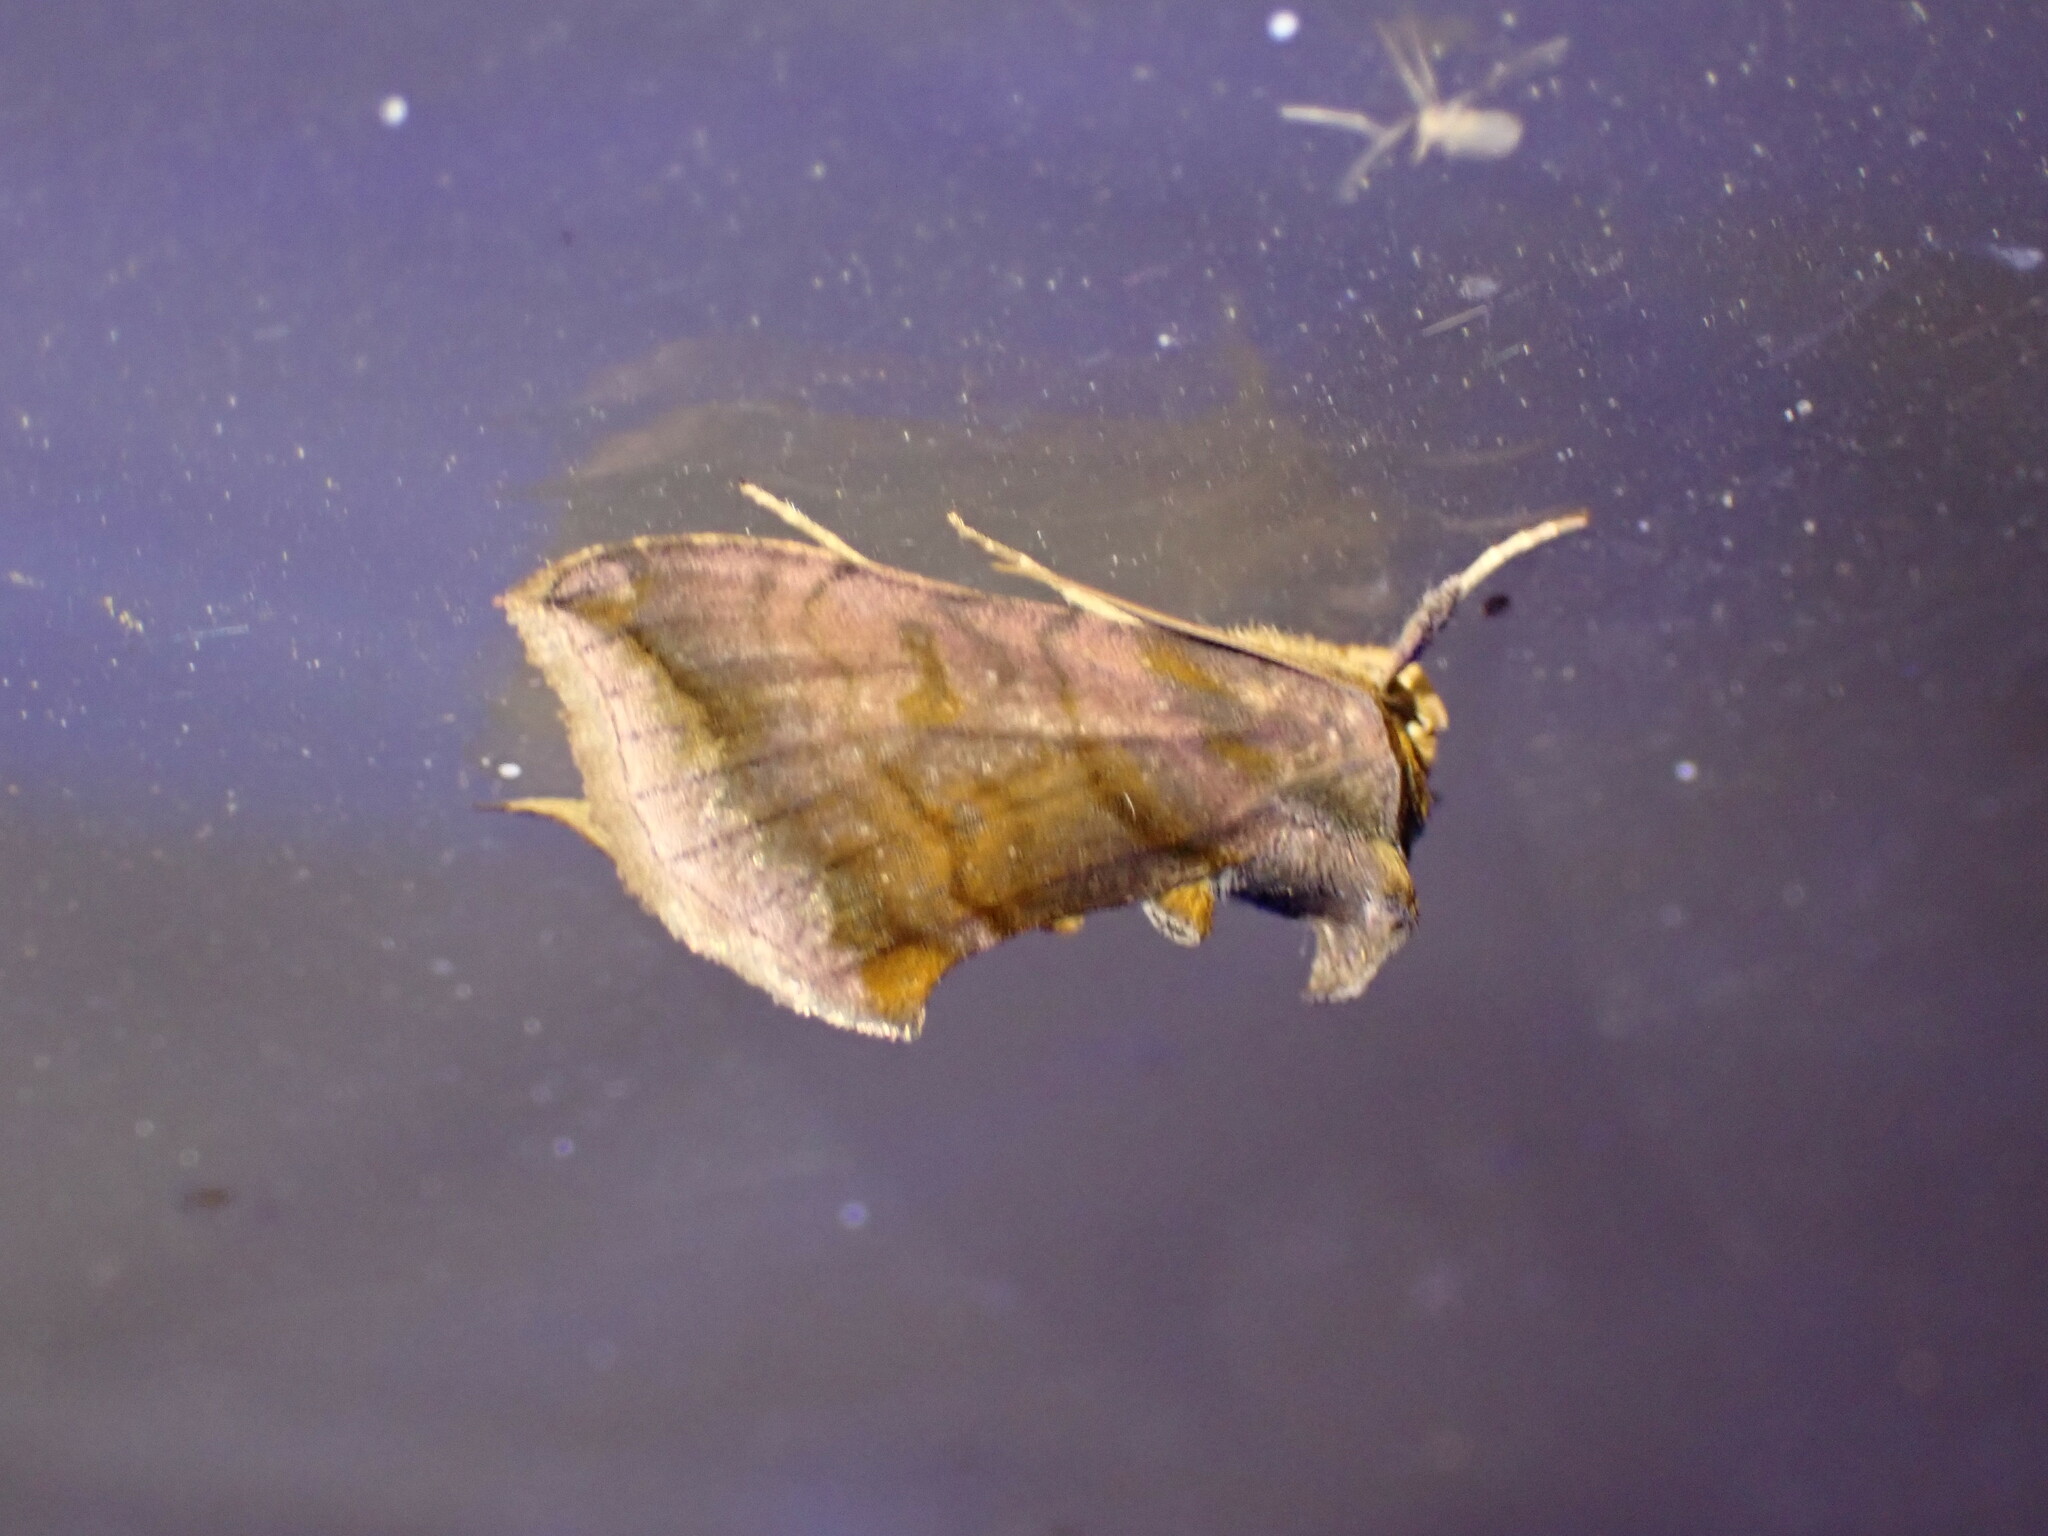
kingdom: Animalia
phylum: Arthropoda
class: Insecta
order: Lepidoptera
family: Noctuidae
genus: Allagrapha
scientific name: Allagrapha aerea
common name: Unspotted looper moth
